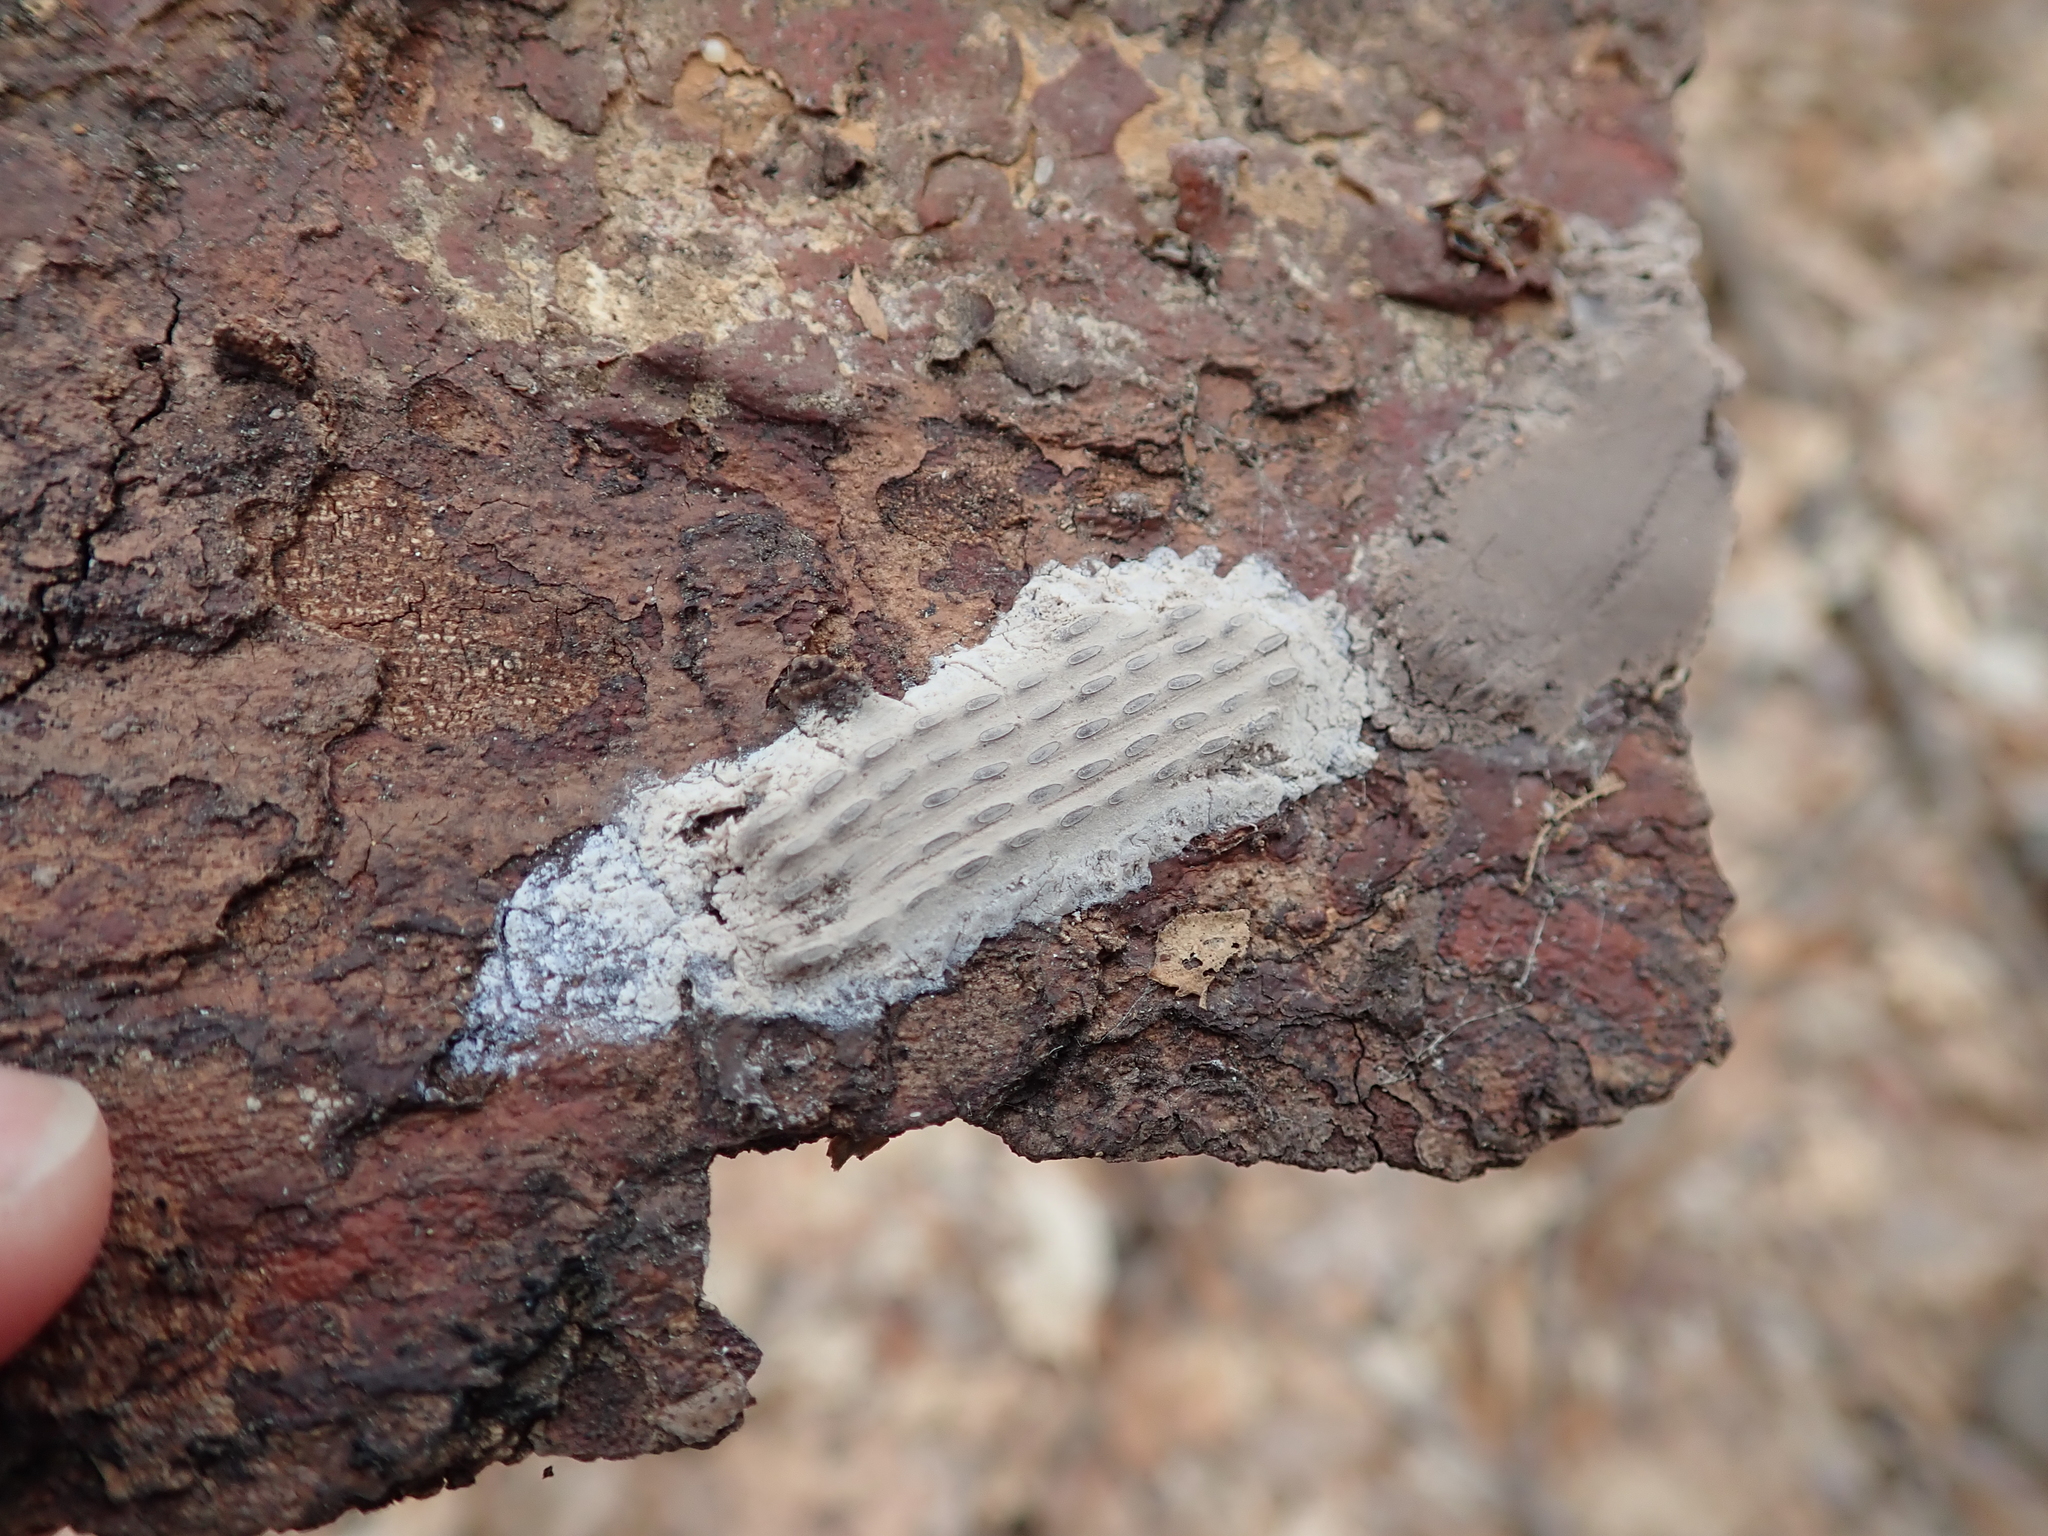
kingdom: Animalia
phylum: Arthropoda
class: Insecta
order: Hemiptera
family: Fulgoridae
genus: Lycorma
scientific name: Lycorma delicatula
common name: Spotted lanternfly
